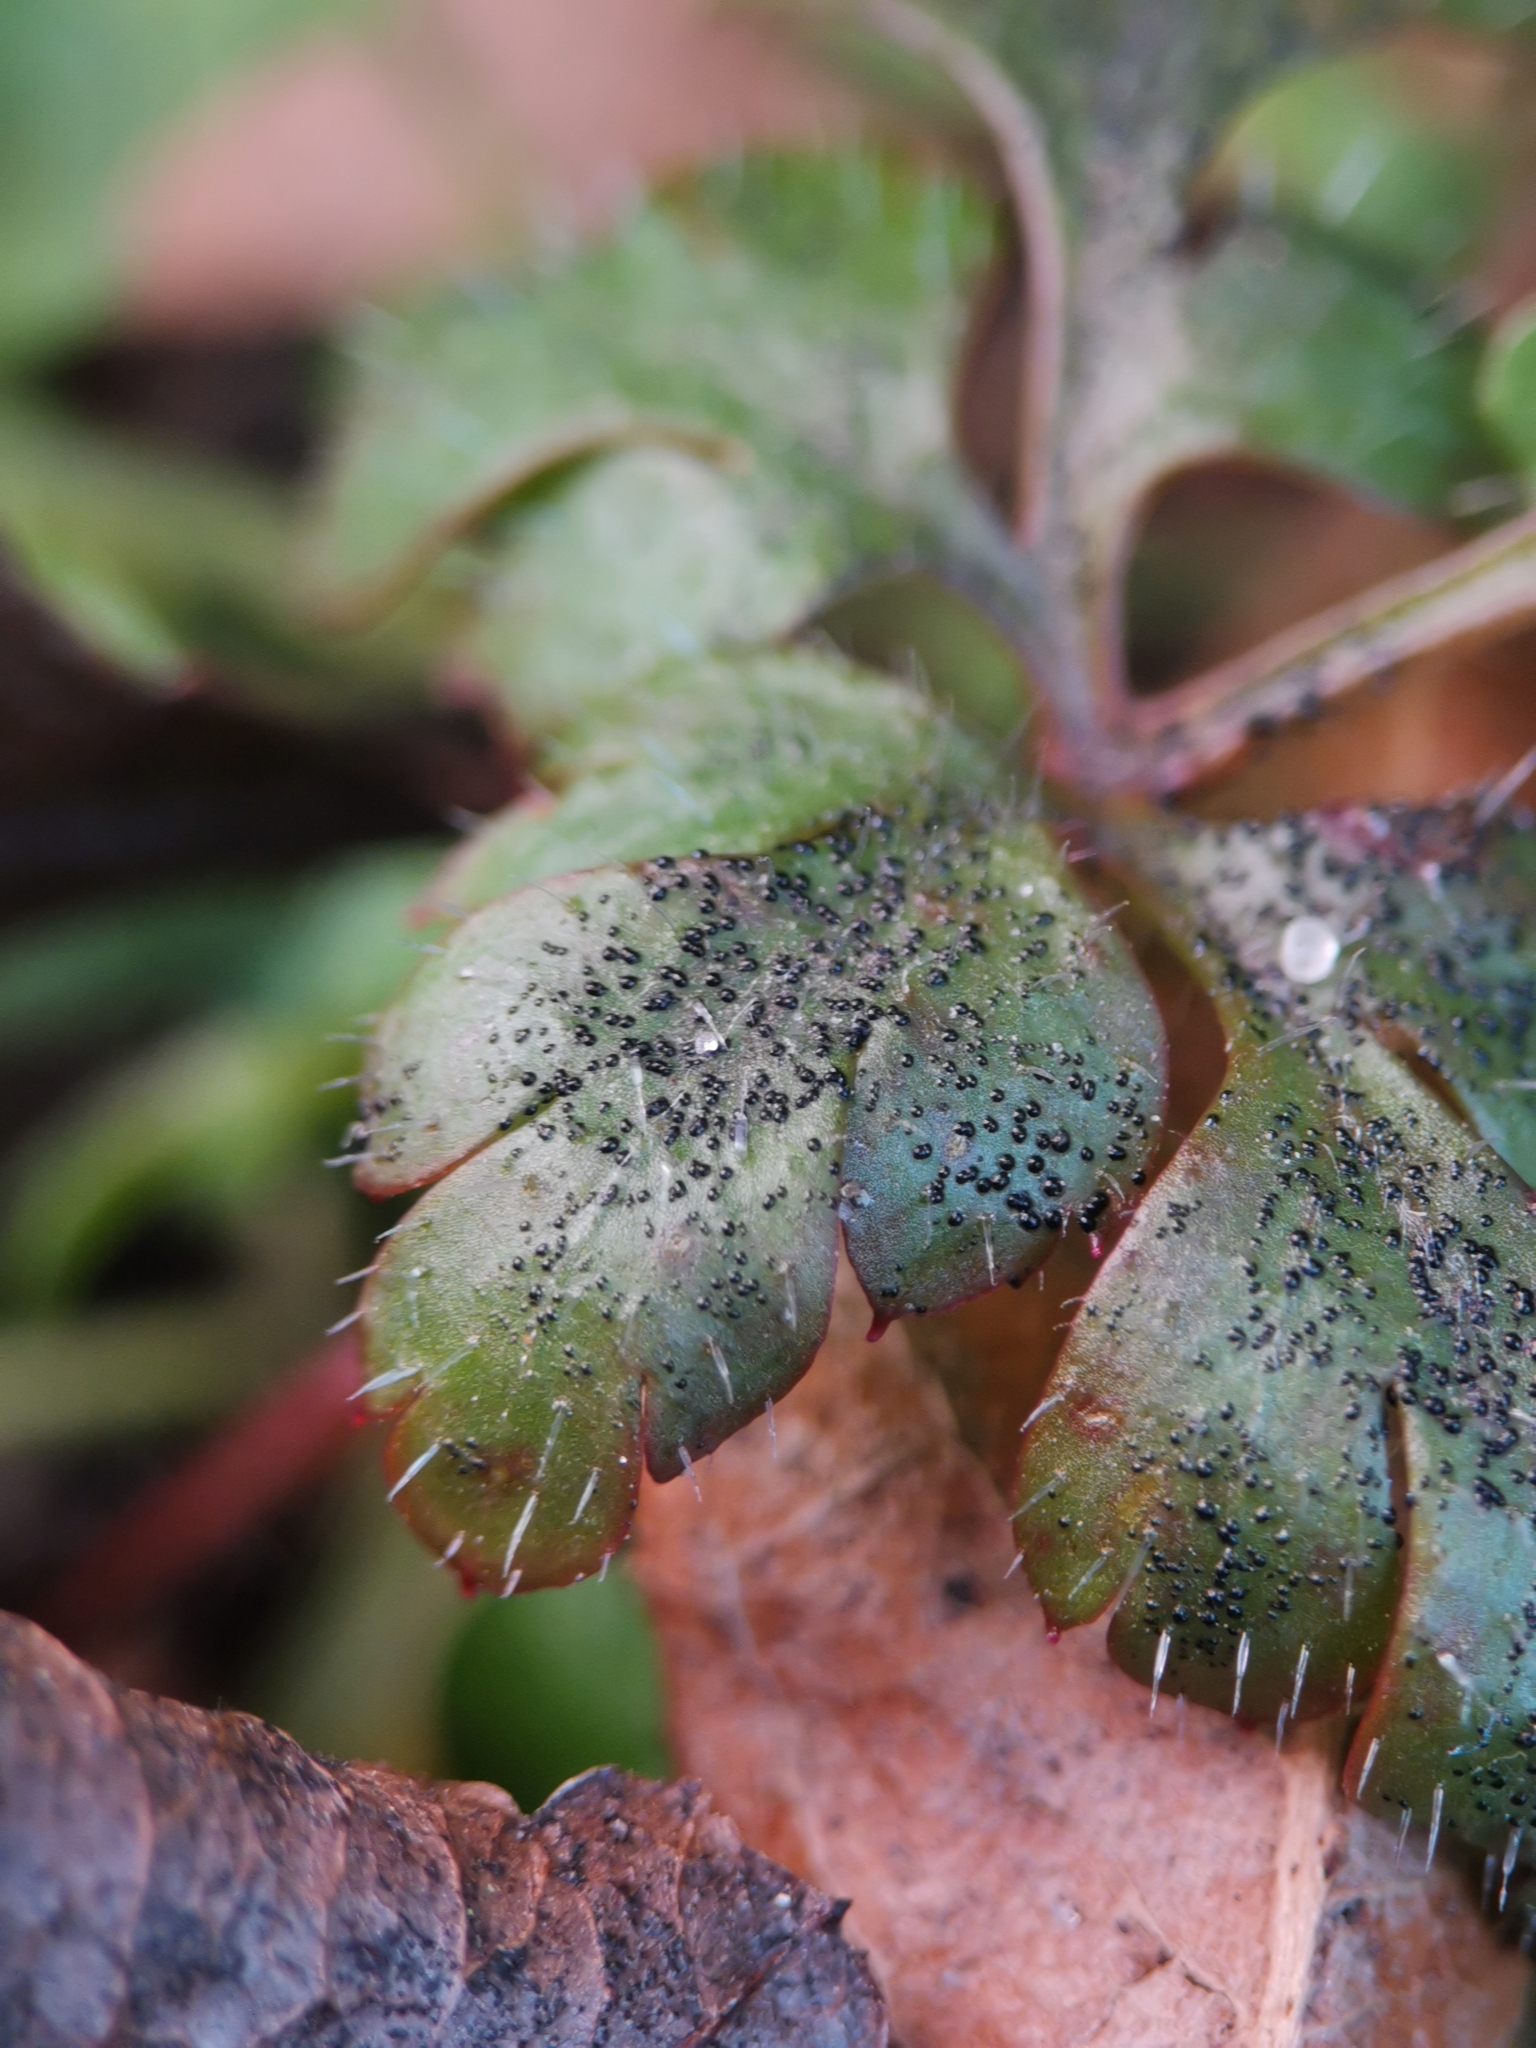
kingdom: Fungi
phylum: Ascomycota
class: Dothideomycetes
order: Venturiales
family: Venturiaceae
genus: Coleroa
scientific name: Coleroa robertiani
